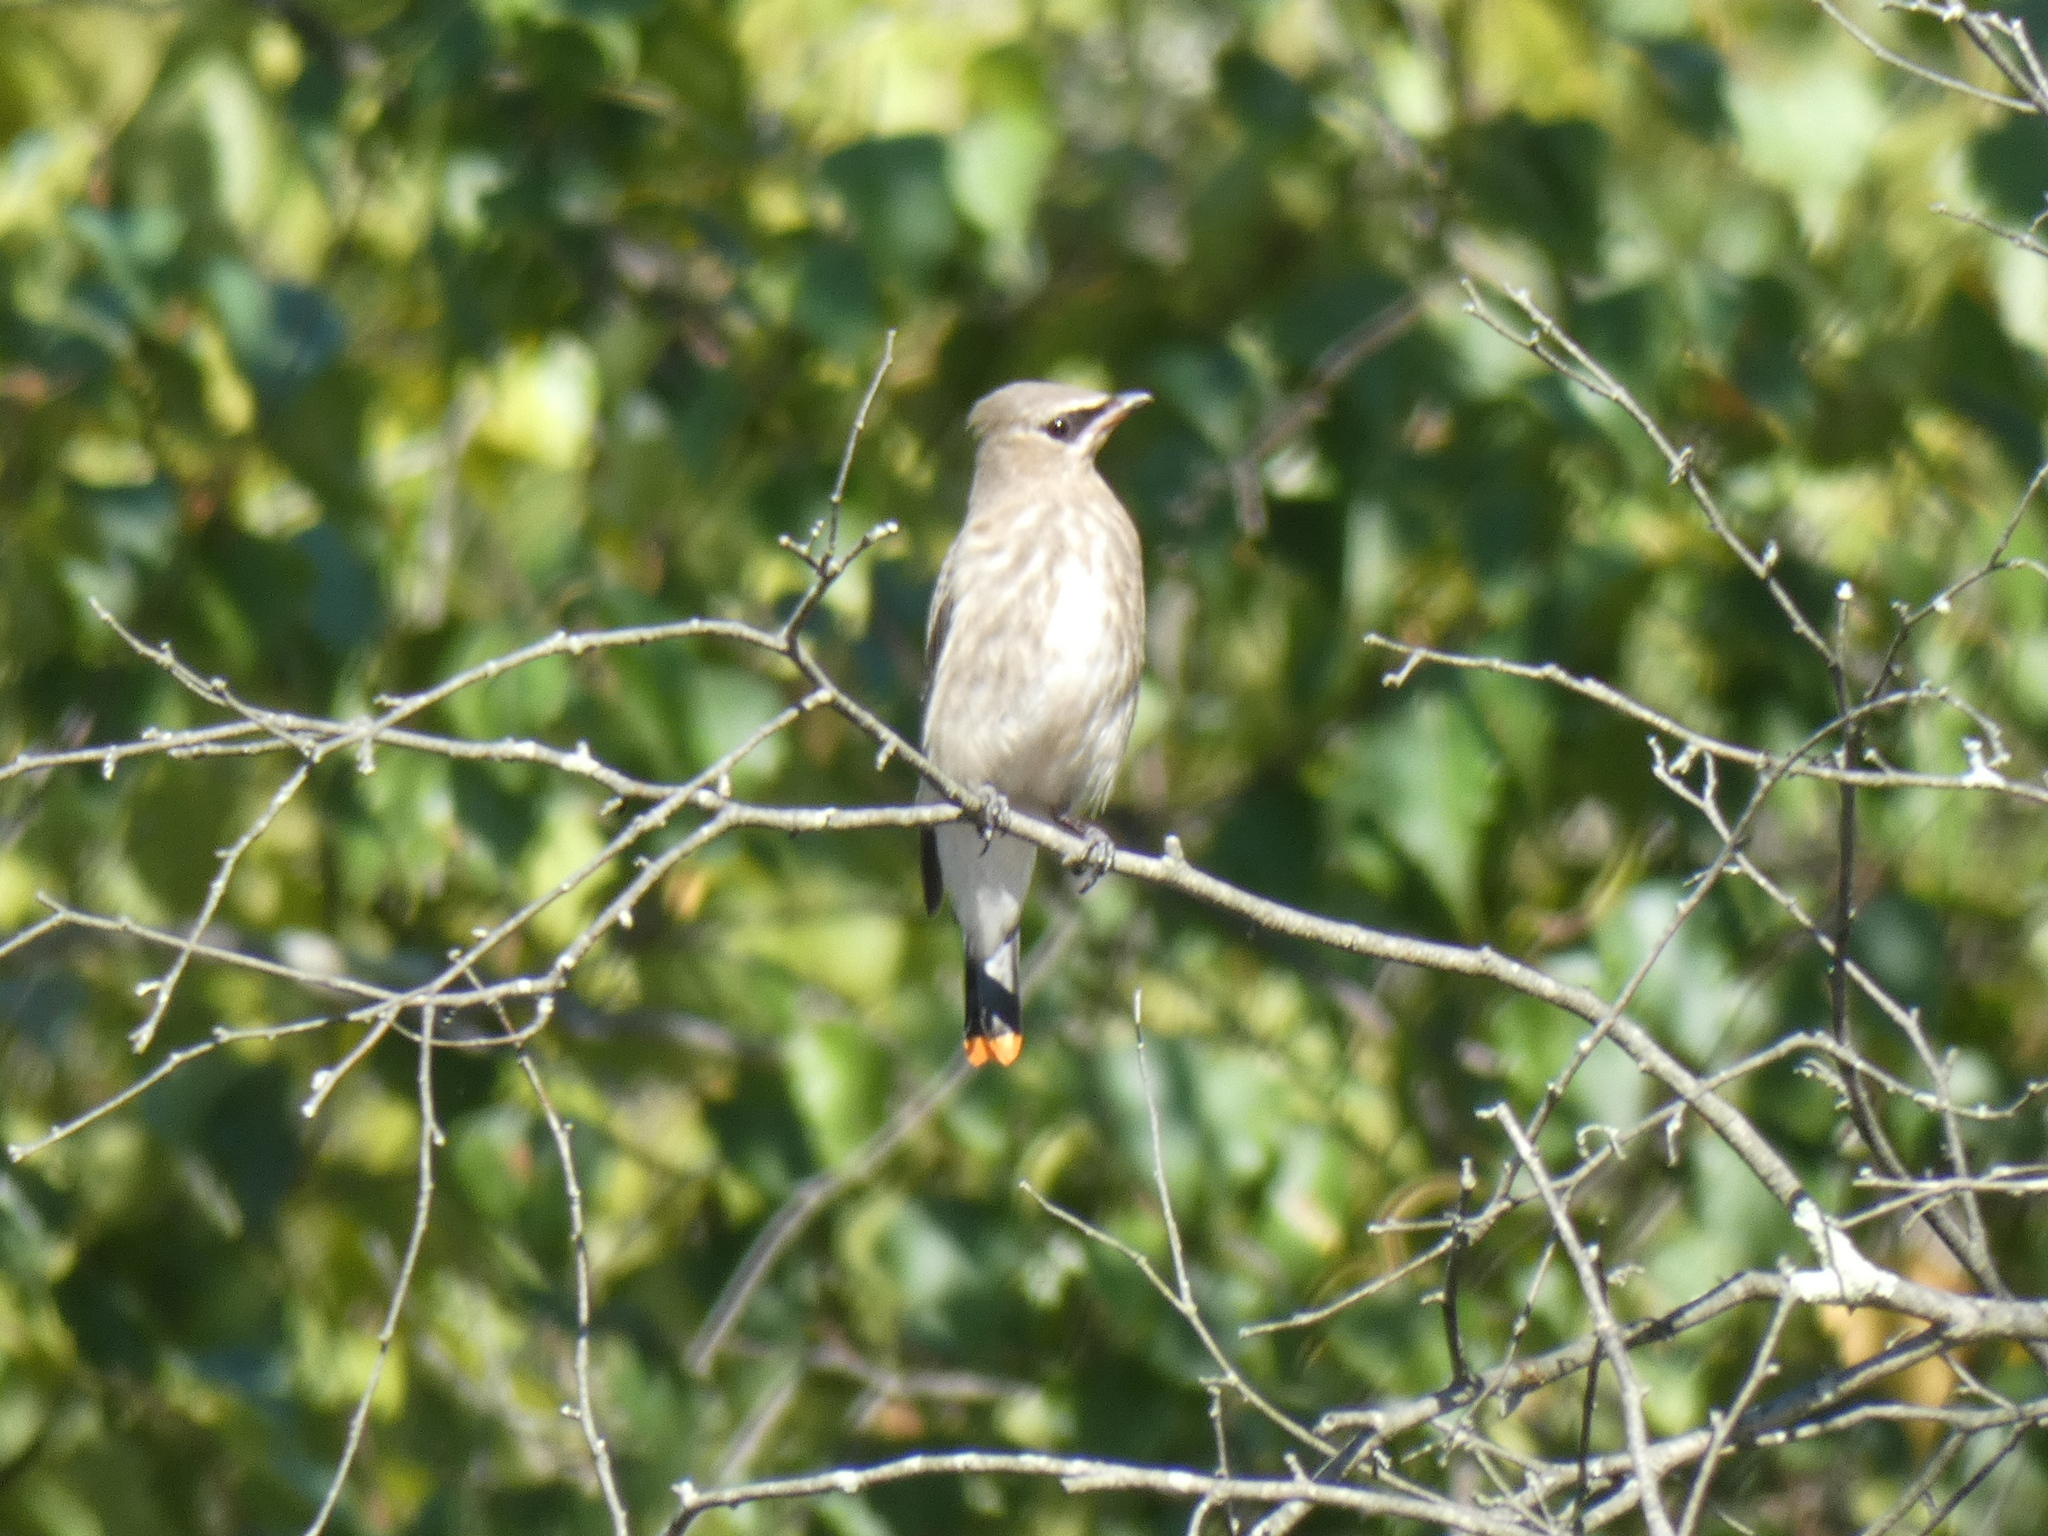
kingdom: Animalia
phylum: Chordata
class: Aves
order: Passeriformes
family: Bombycillidae
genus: Bombycilla
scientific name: Bombycilla cedrorum
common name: Cedar waxwing
